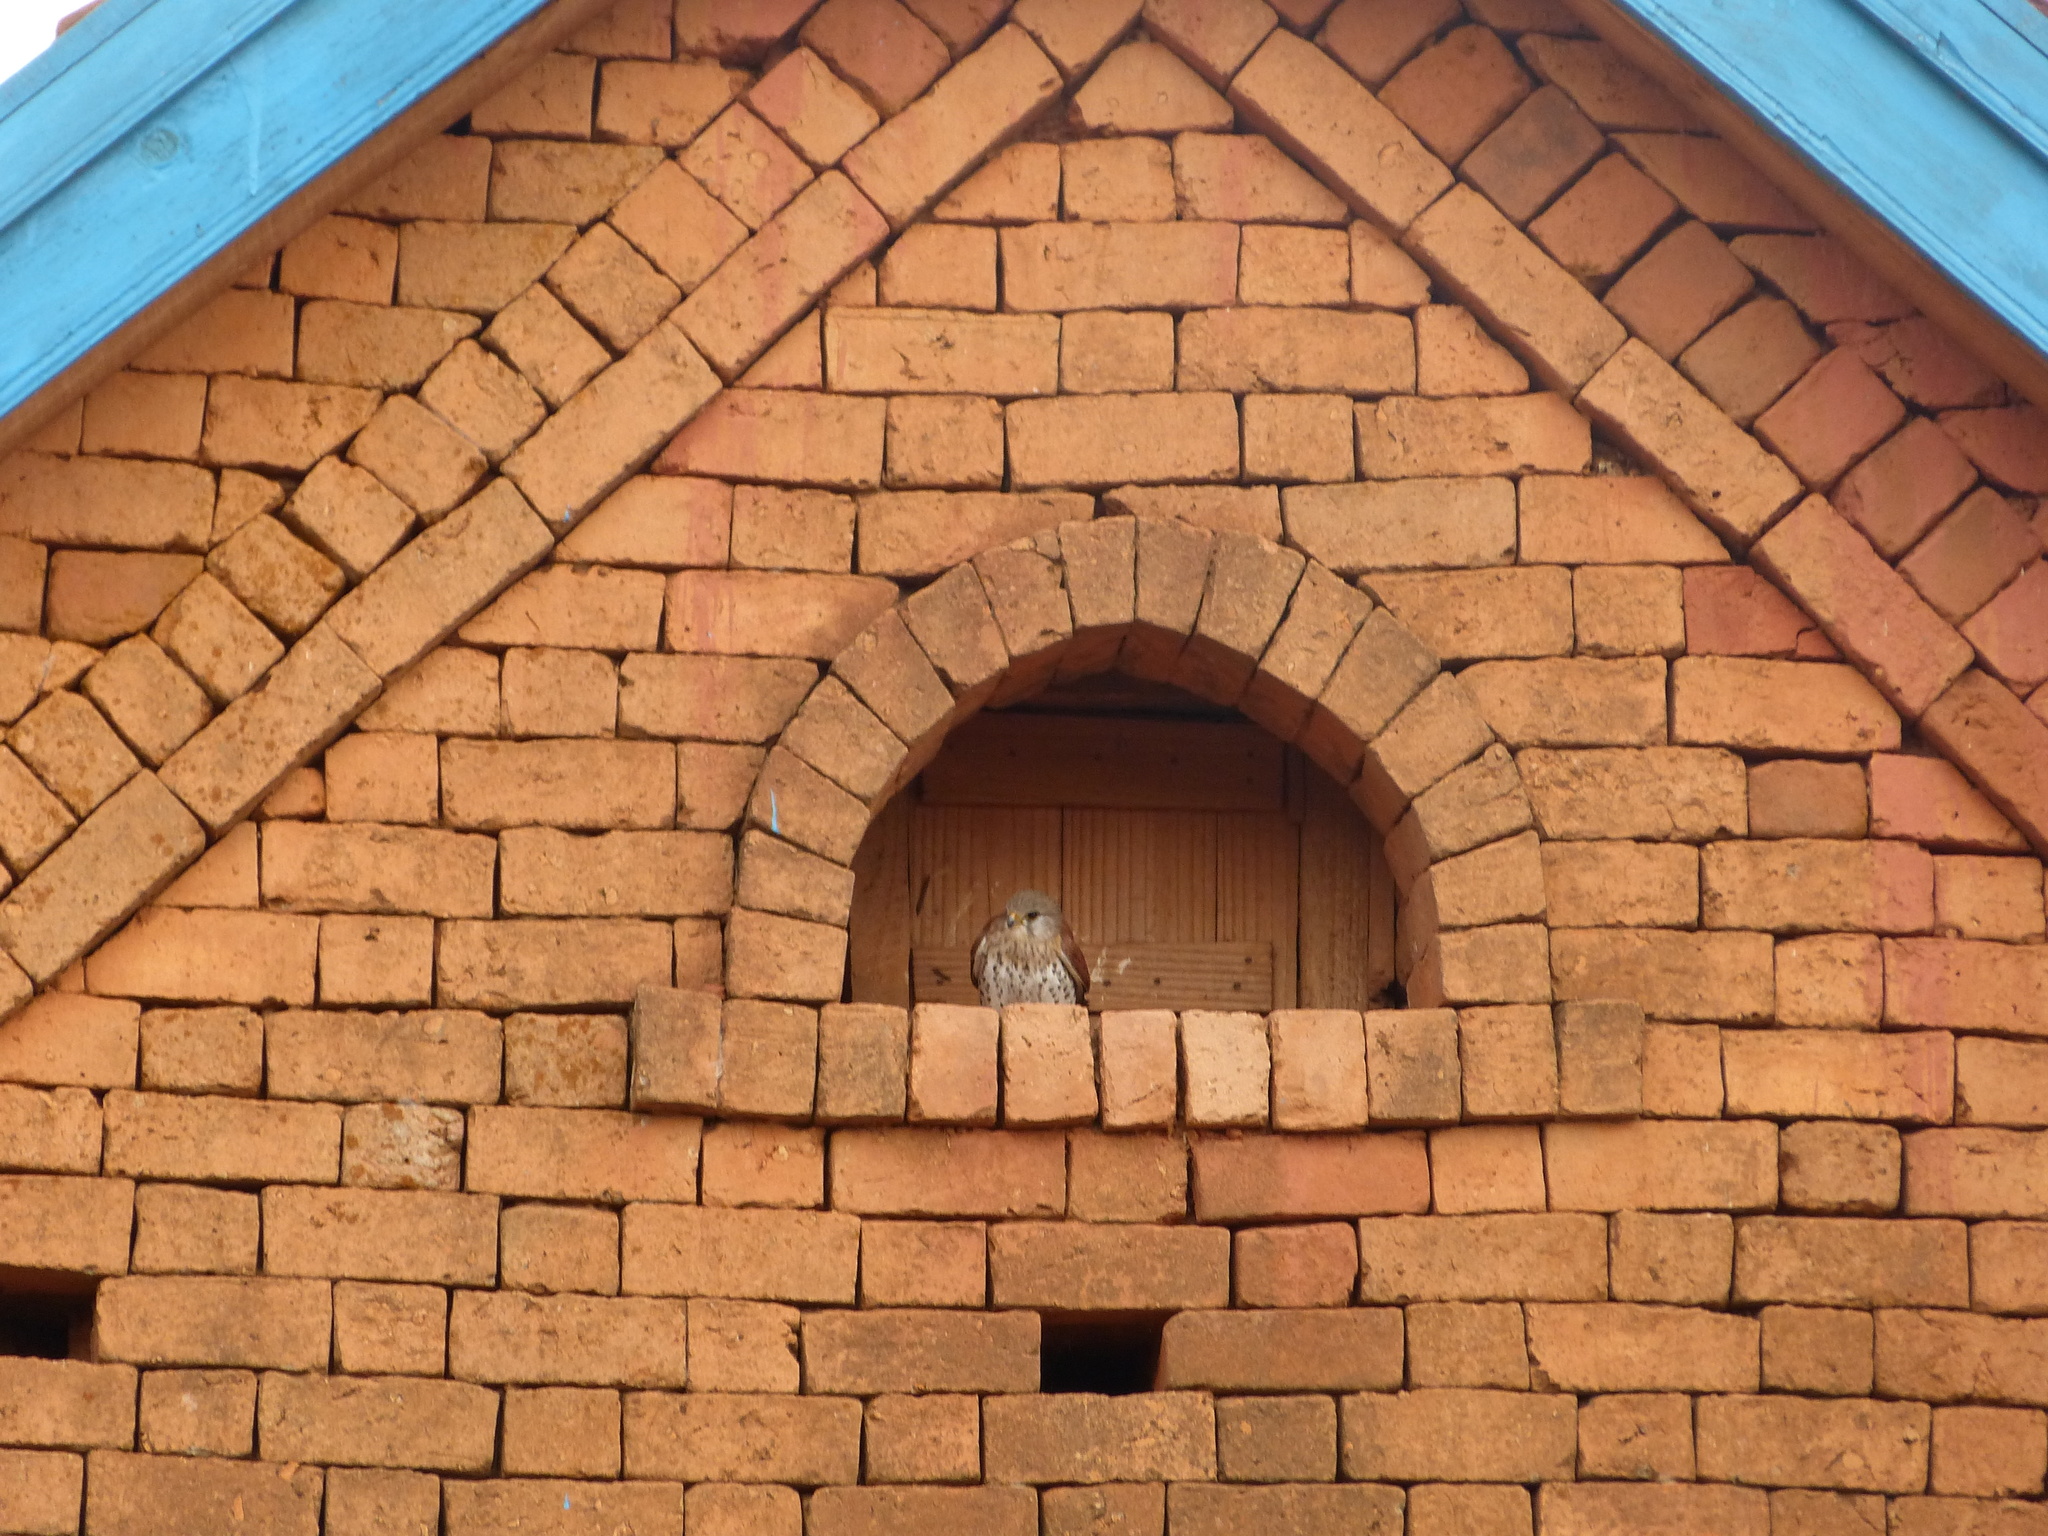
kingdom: Animalia
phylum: Chordata
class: Aves
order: Falconiformes
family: Falconidae
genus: Falco
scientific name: Falco newtoni
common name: Malagasy kestrel
